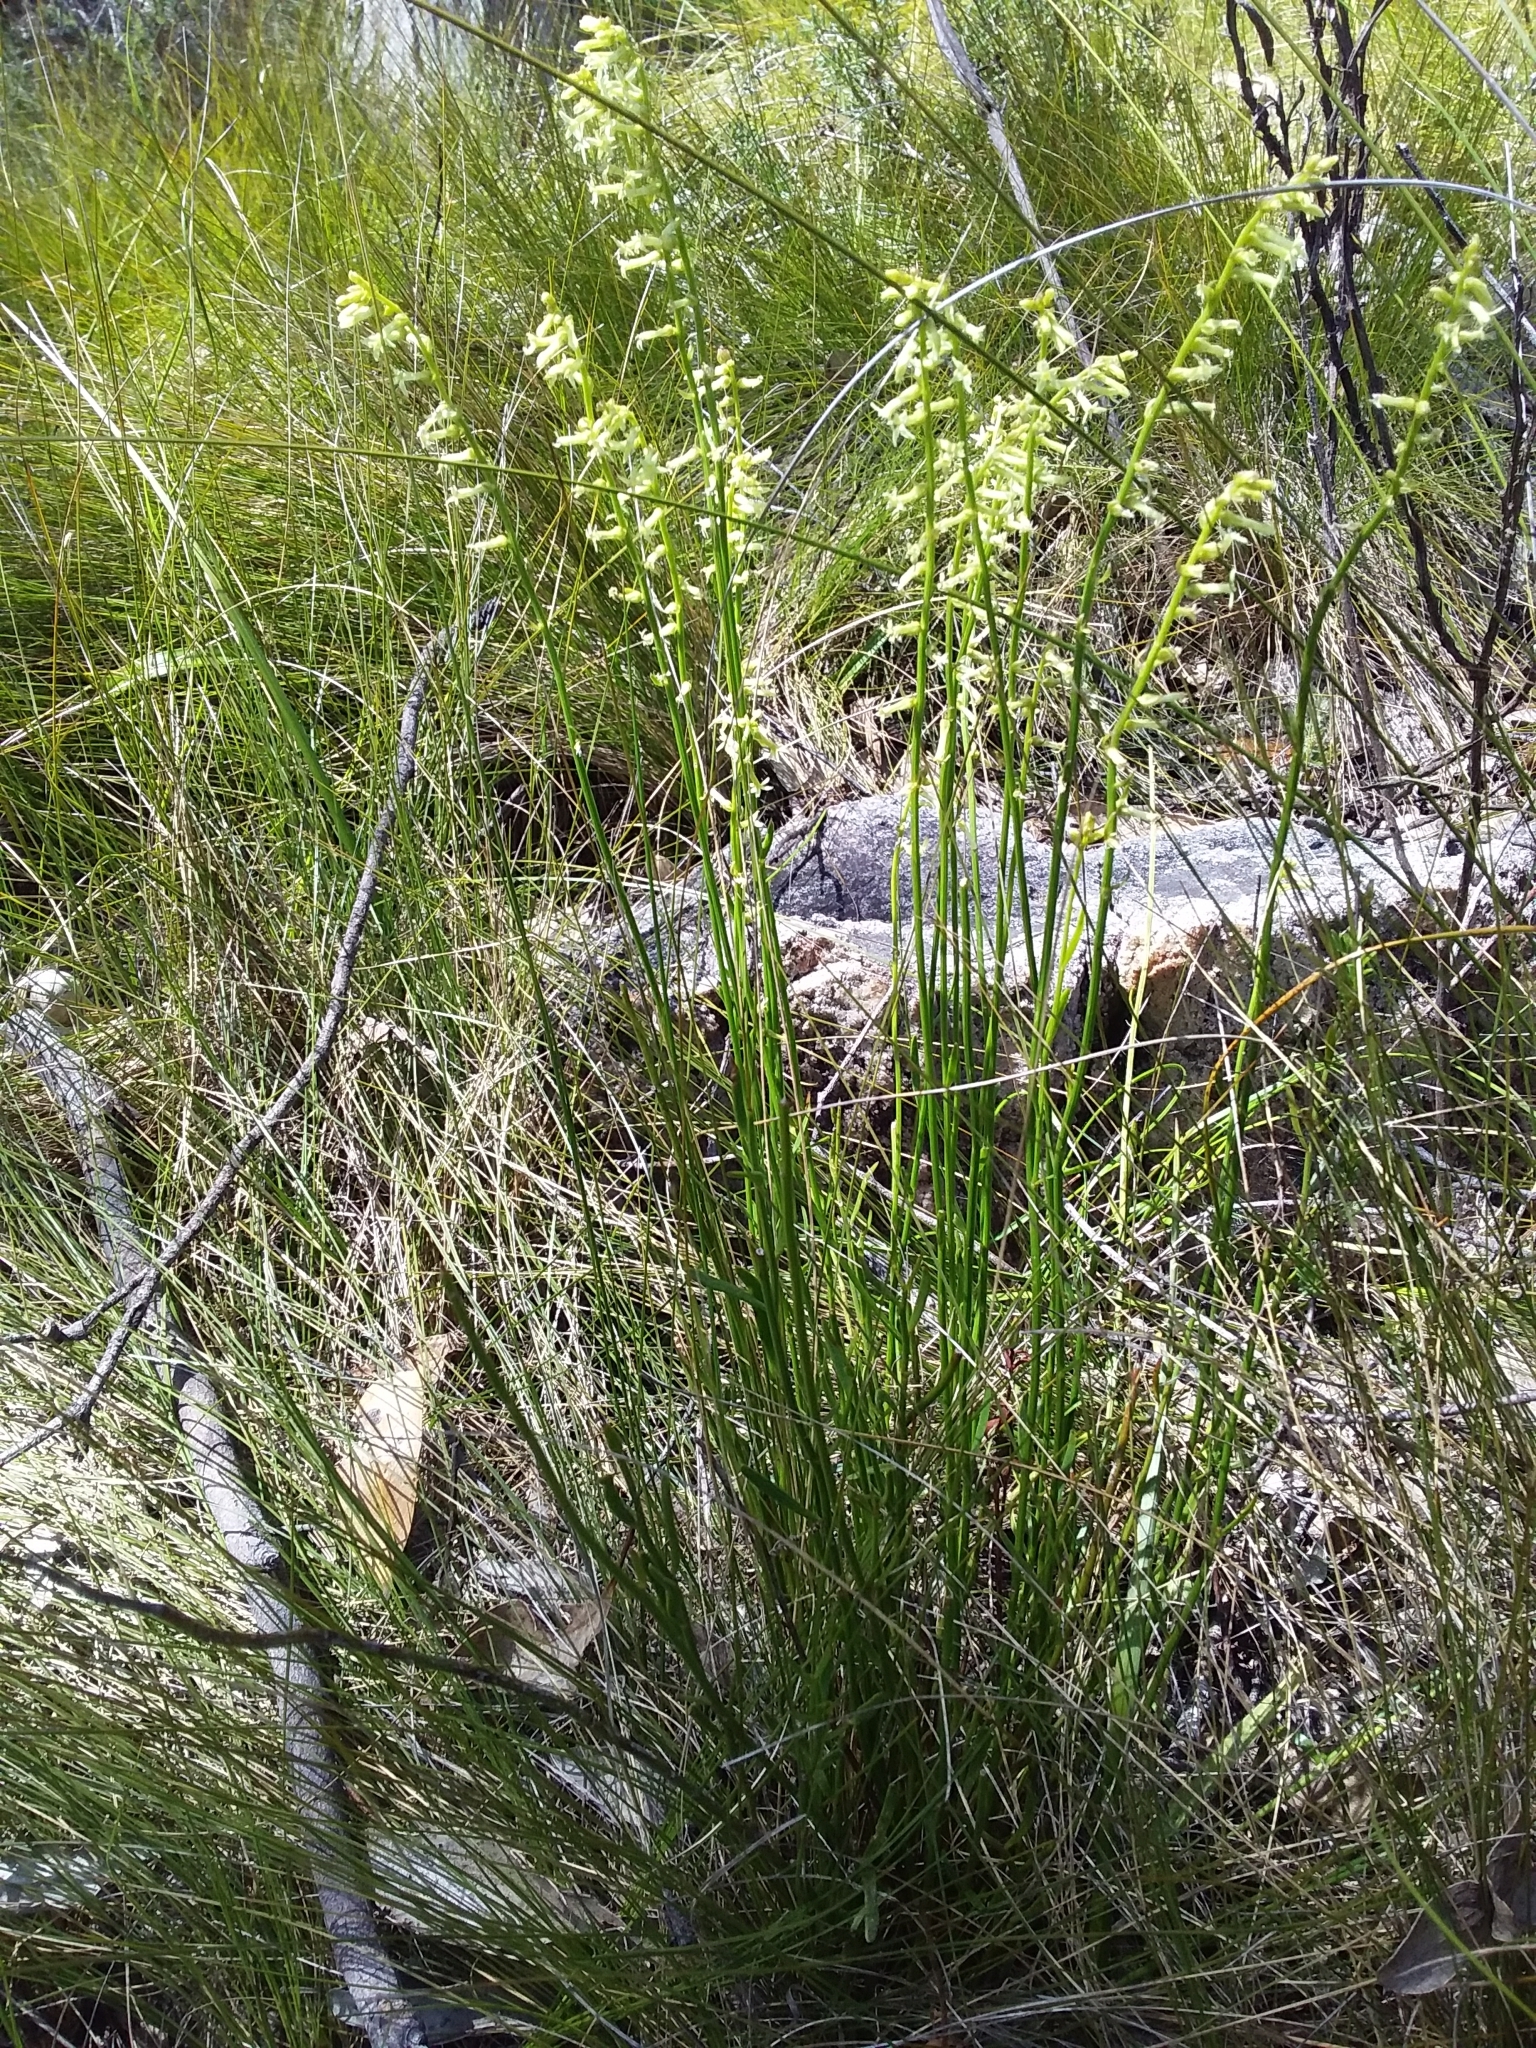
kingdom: Plantae
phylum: Tracheophyta
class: Magnoliopsida
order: Celastrales
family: Celastraceae
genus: Stackhousia
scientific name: Stackhousia monogyna
